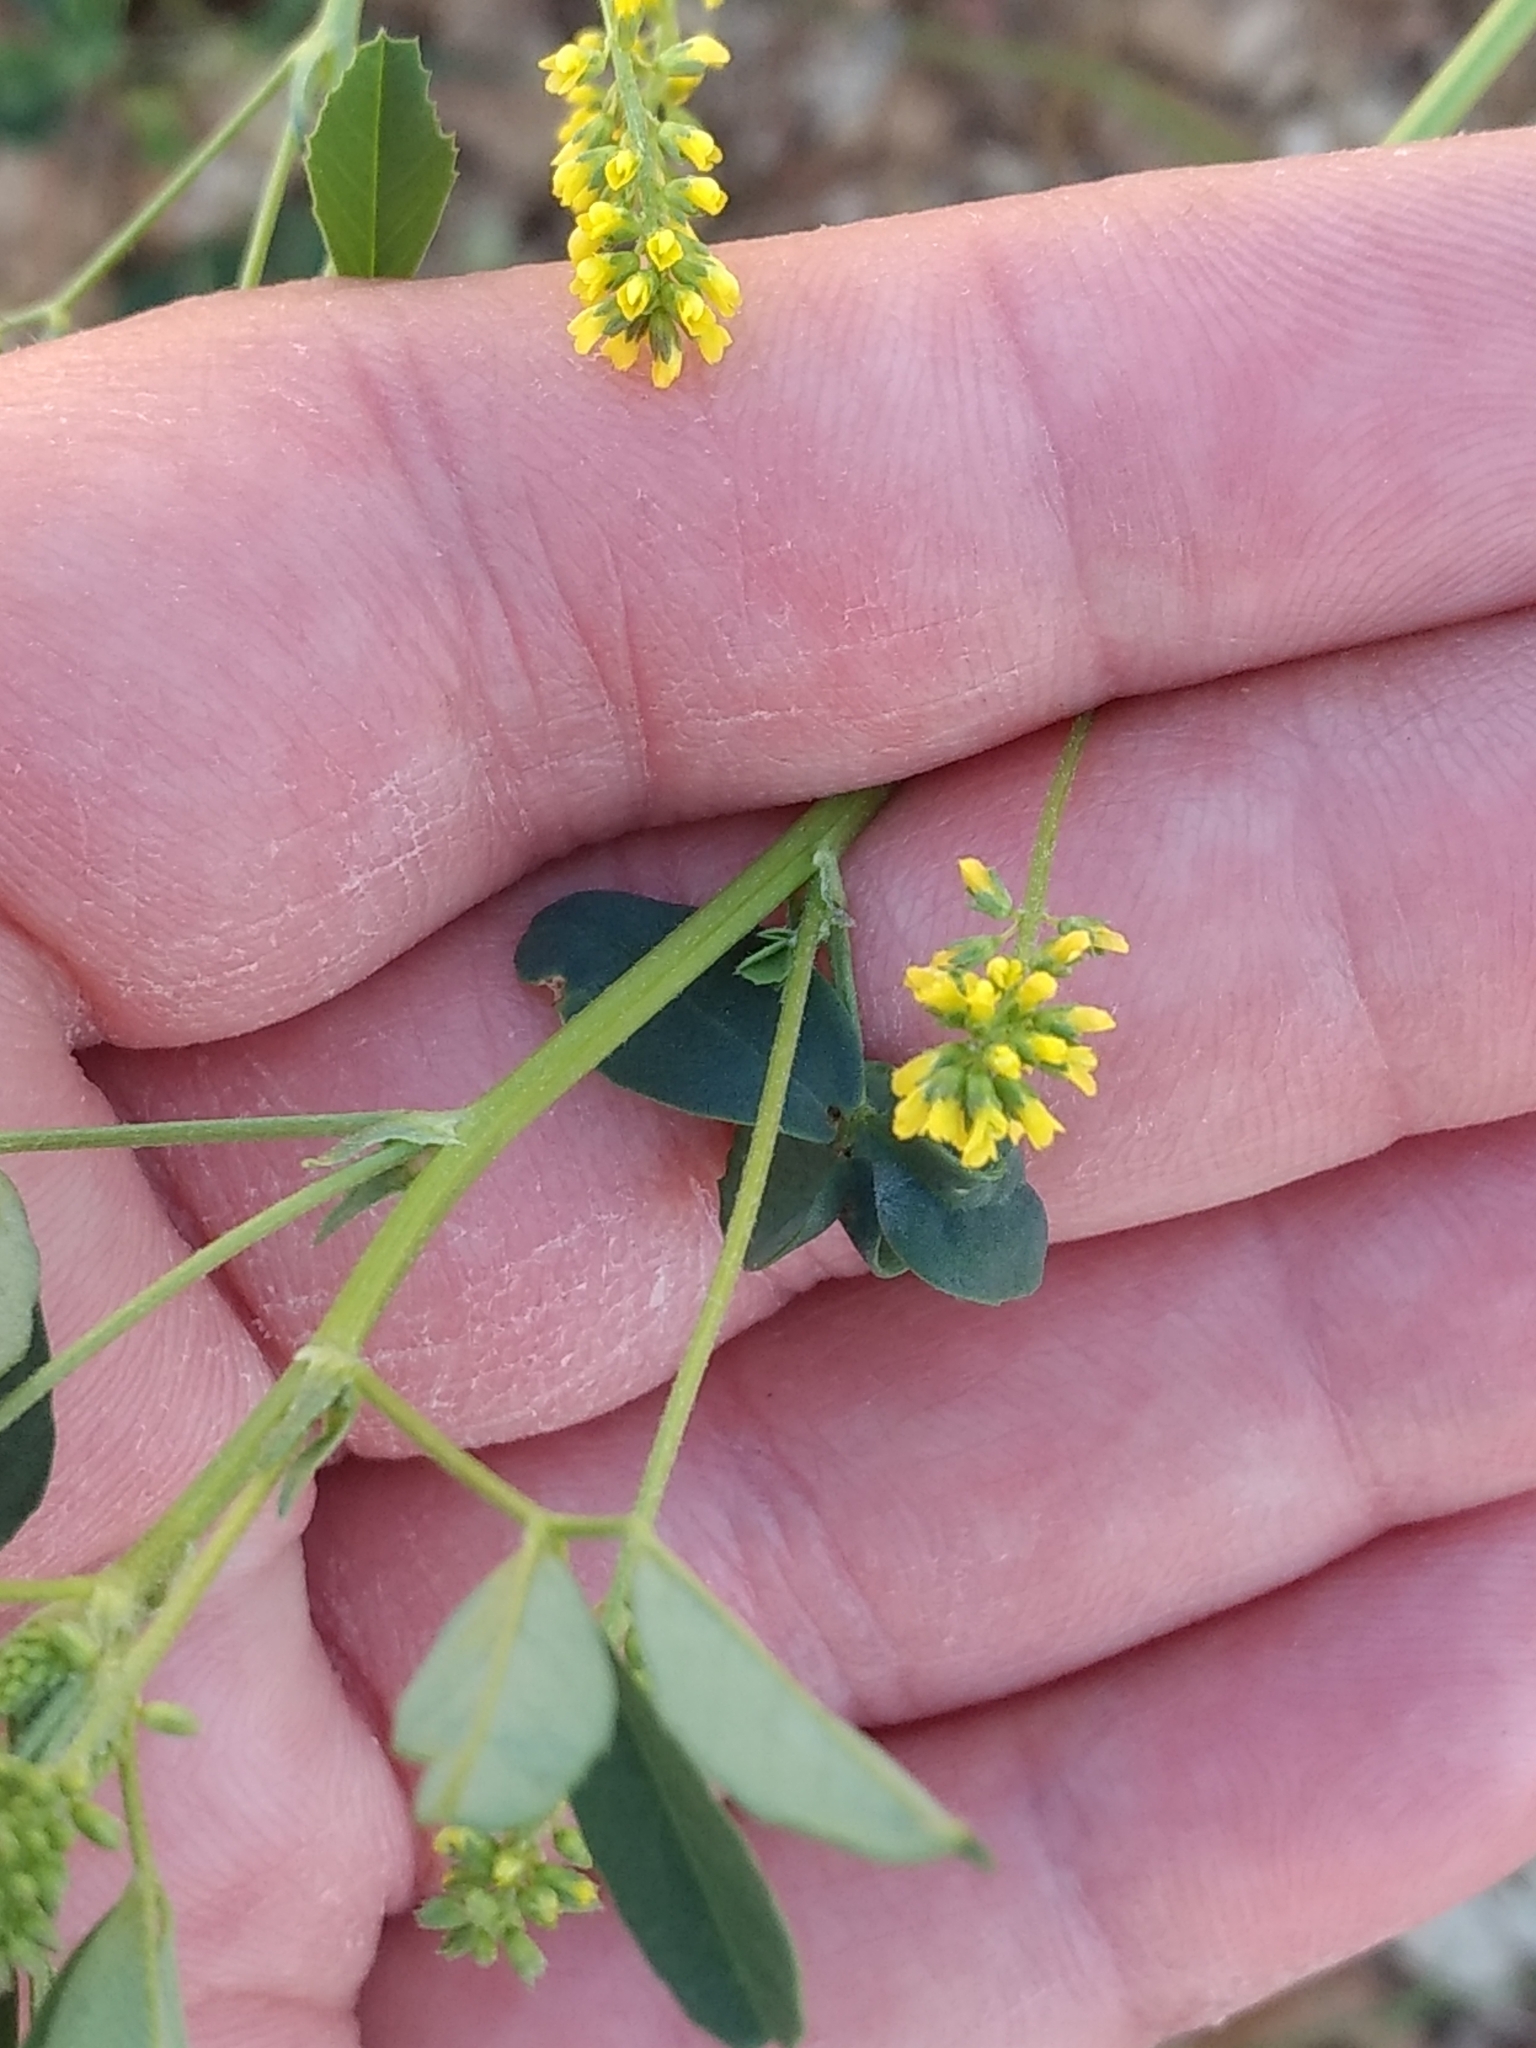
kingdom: Plantae
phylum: Tracheophyta
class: Magnoliopsida
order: Fabales
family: Fabaceae
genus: Melilotus
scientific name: Melilotus indicus
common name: Small melilot
